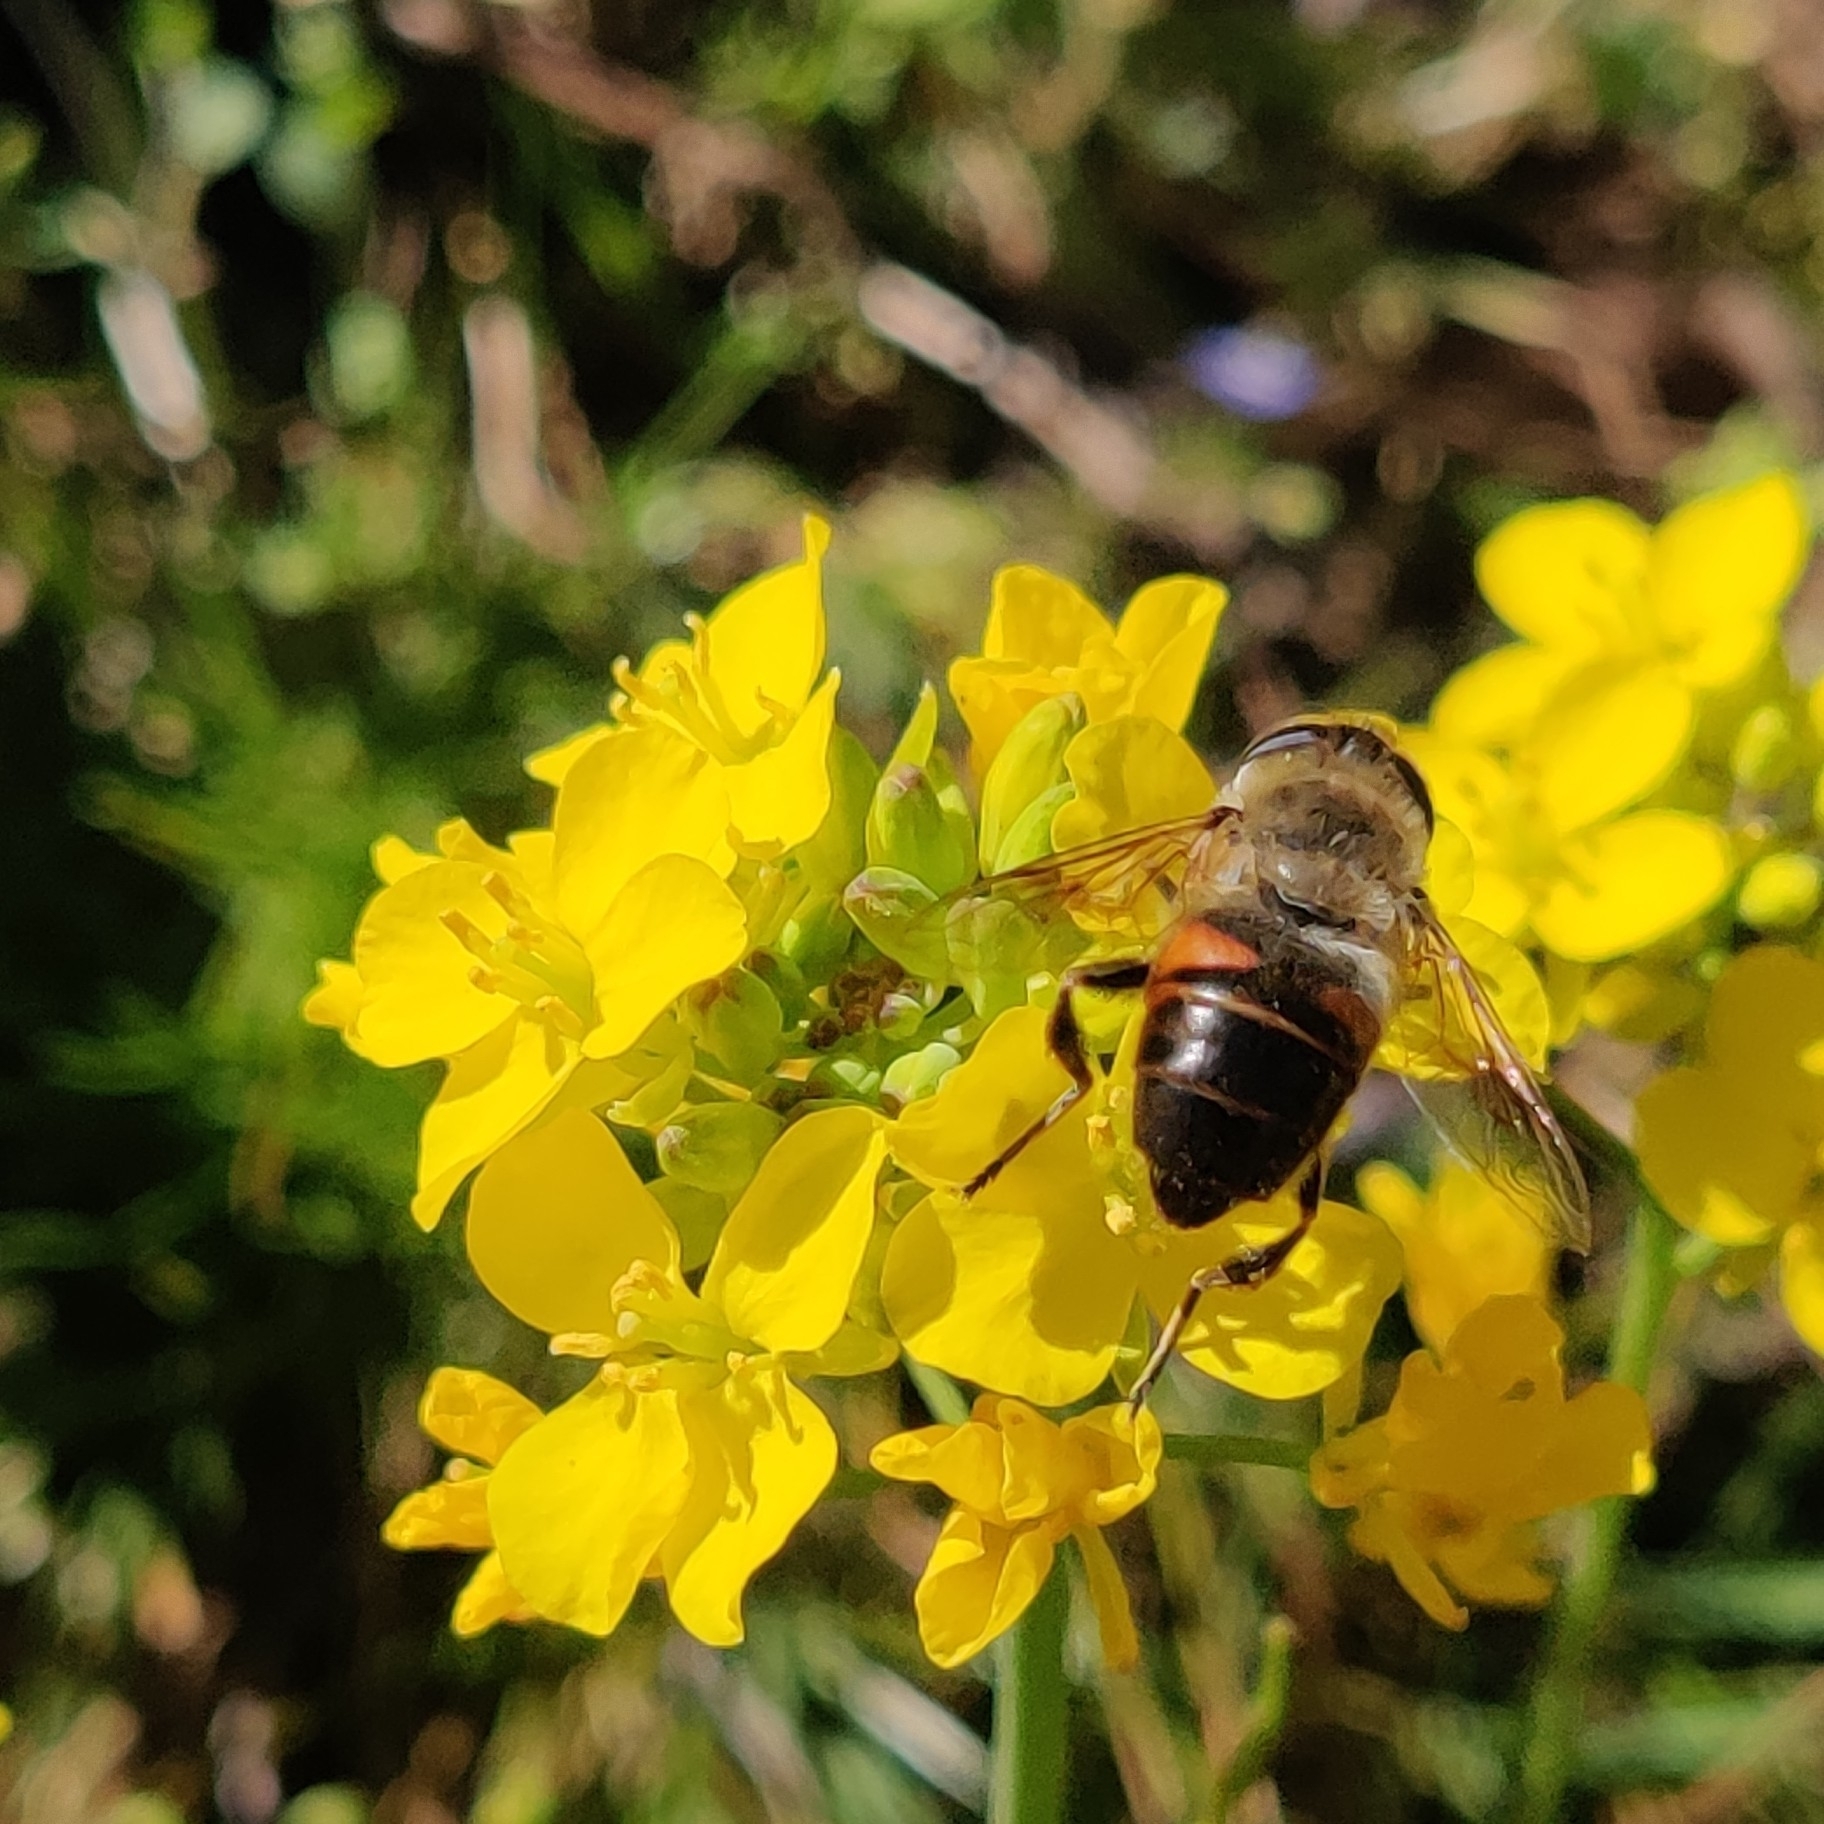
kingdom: Animalia
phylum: Arthropoda
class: Insecta
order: Diptera
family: Syrphidae
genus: Eristalis
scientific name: Eristalis tenax
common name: Drone fly
